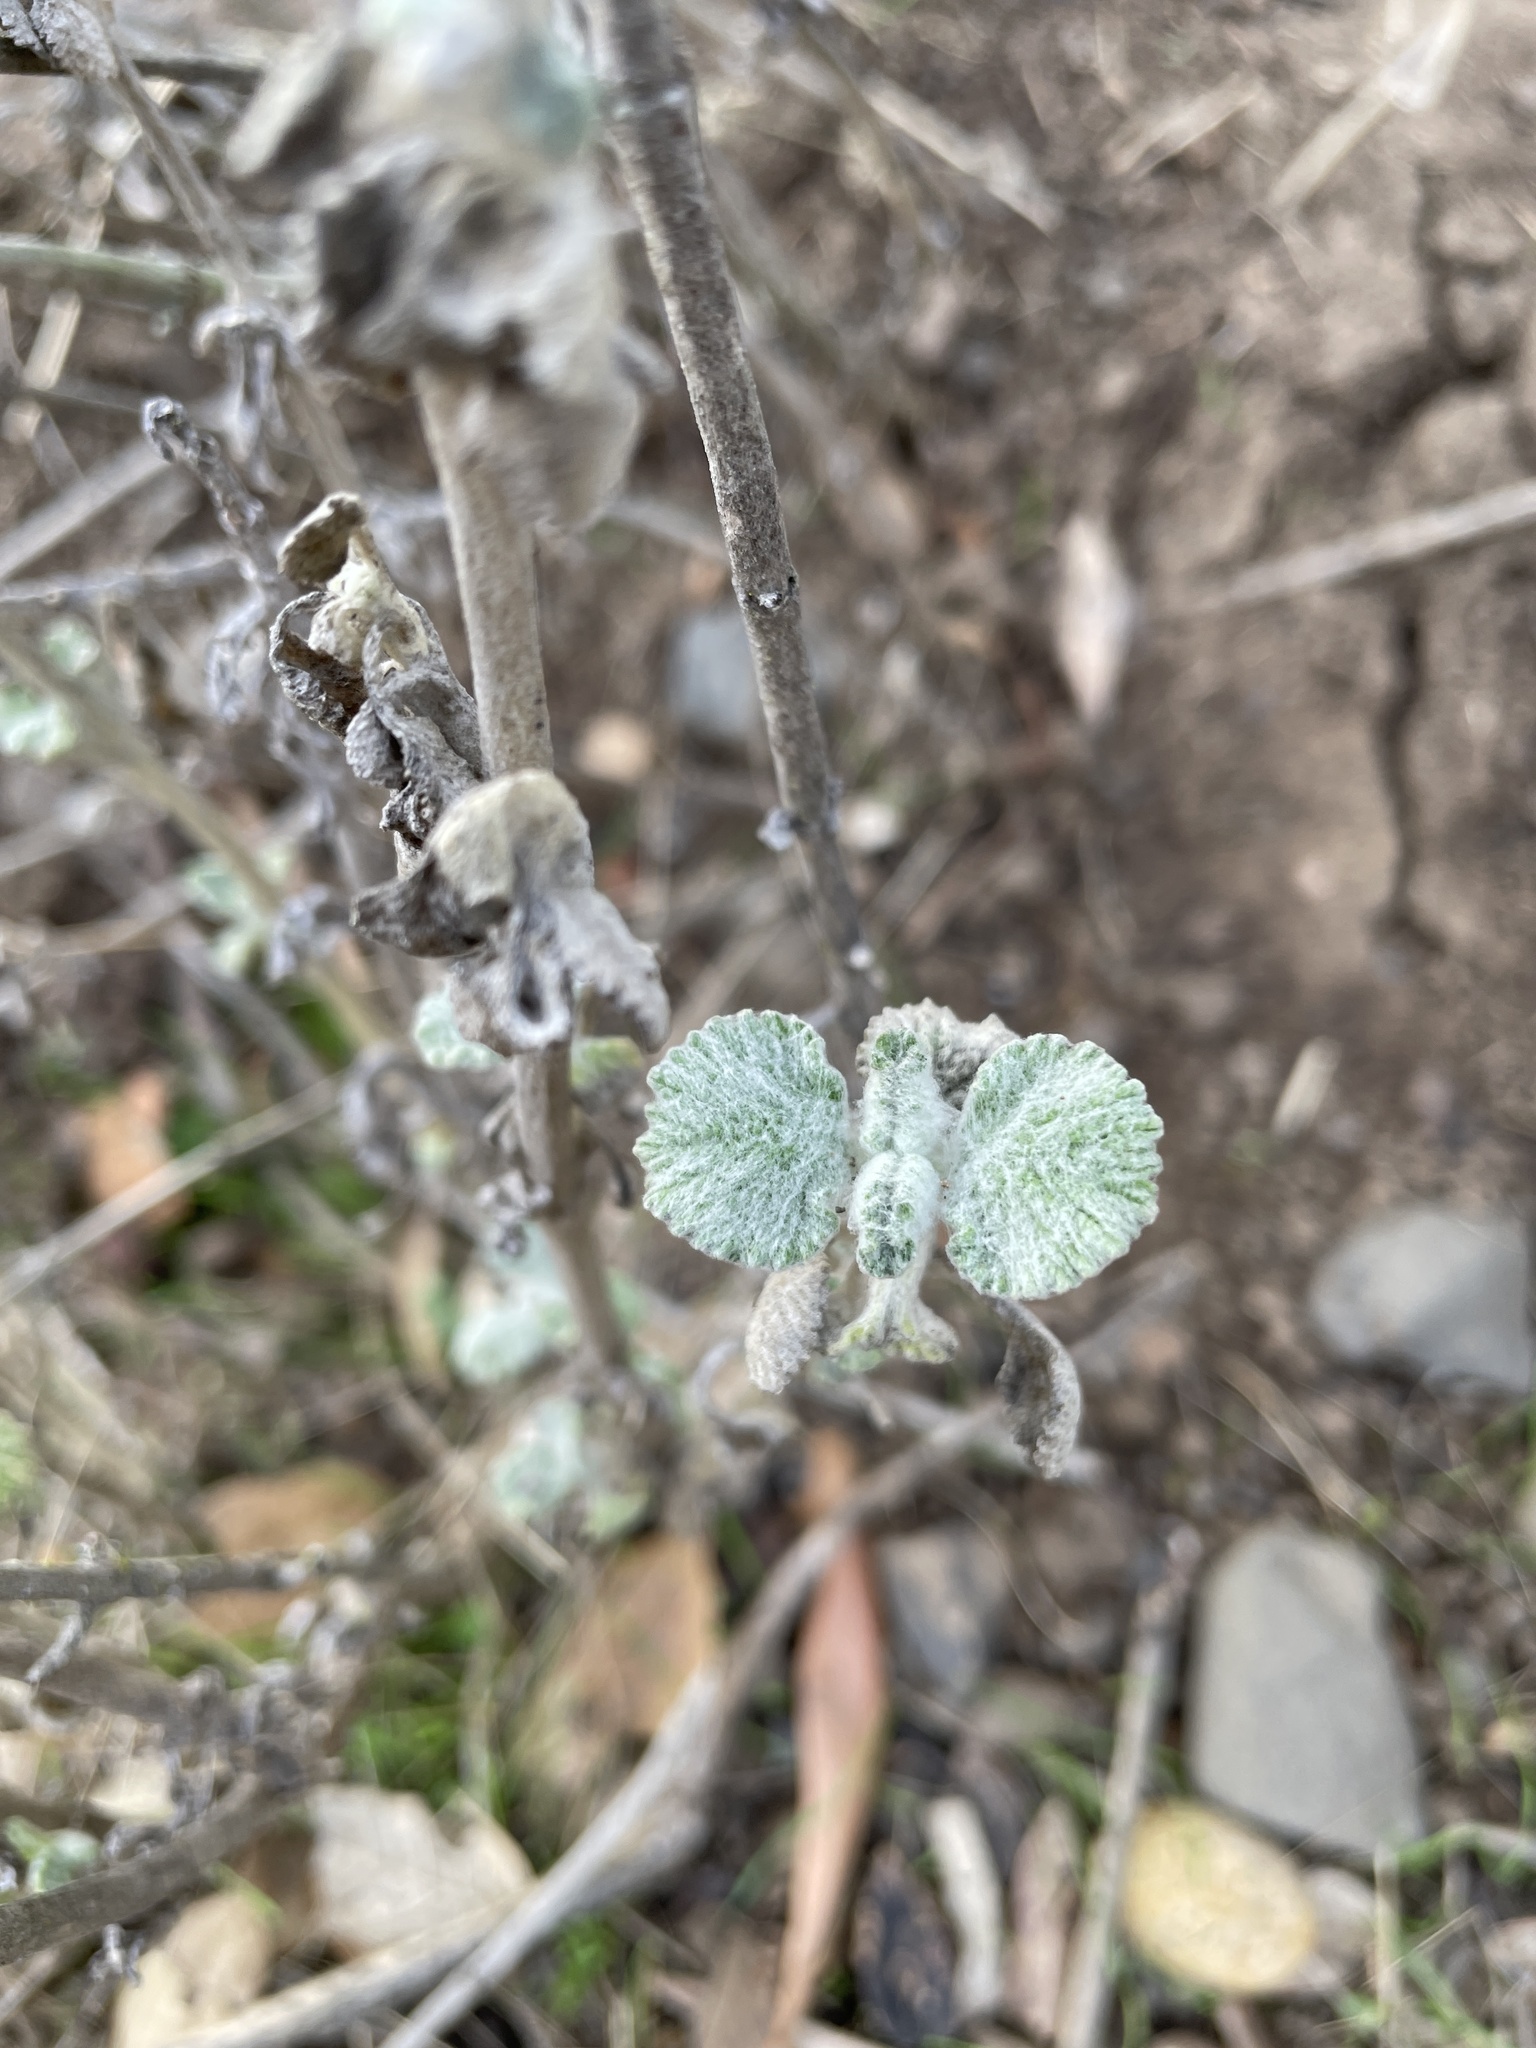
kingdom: Plantae
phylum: Tracheophyta
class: Magnoliopsida
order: Lamiales
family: Lamiaceae
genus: Marrubium
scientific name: Marrubium vulgare
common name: Horehound
